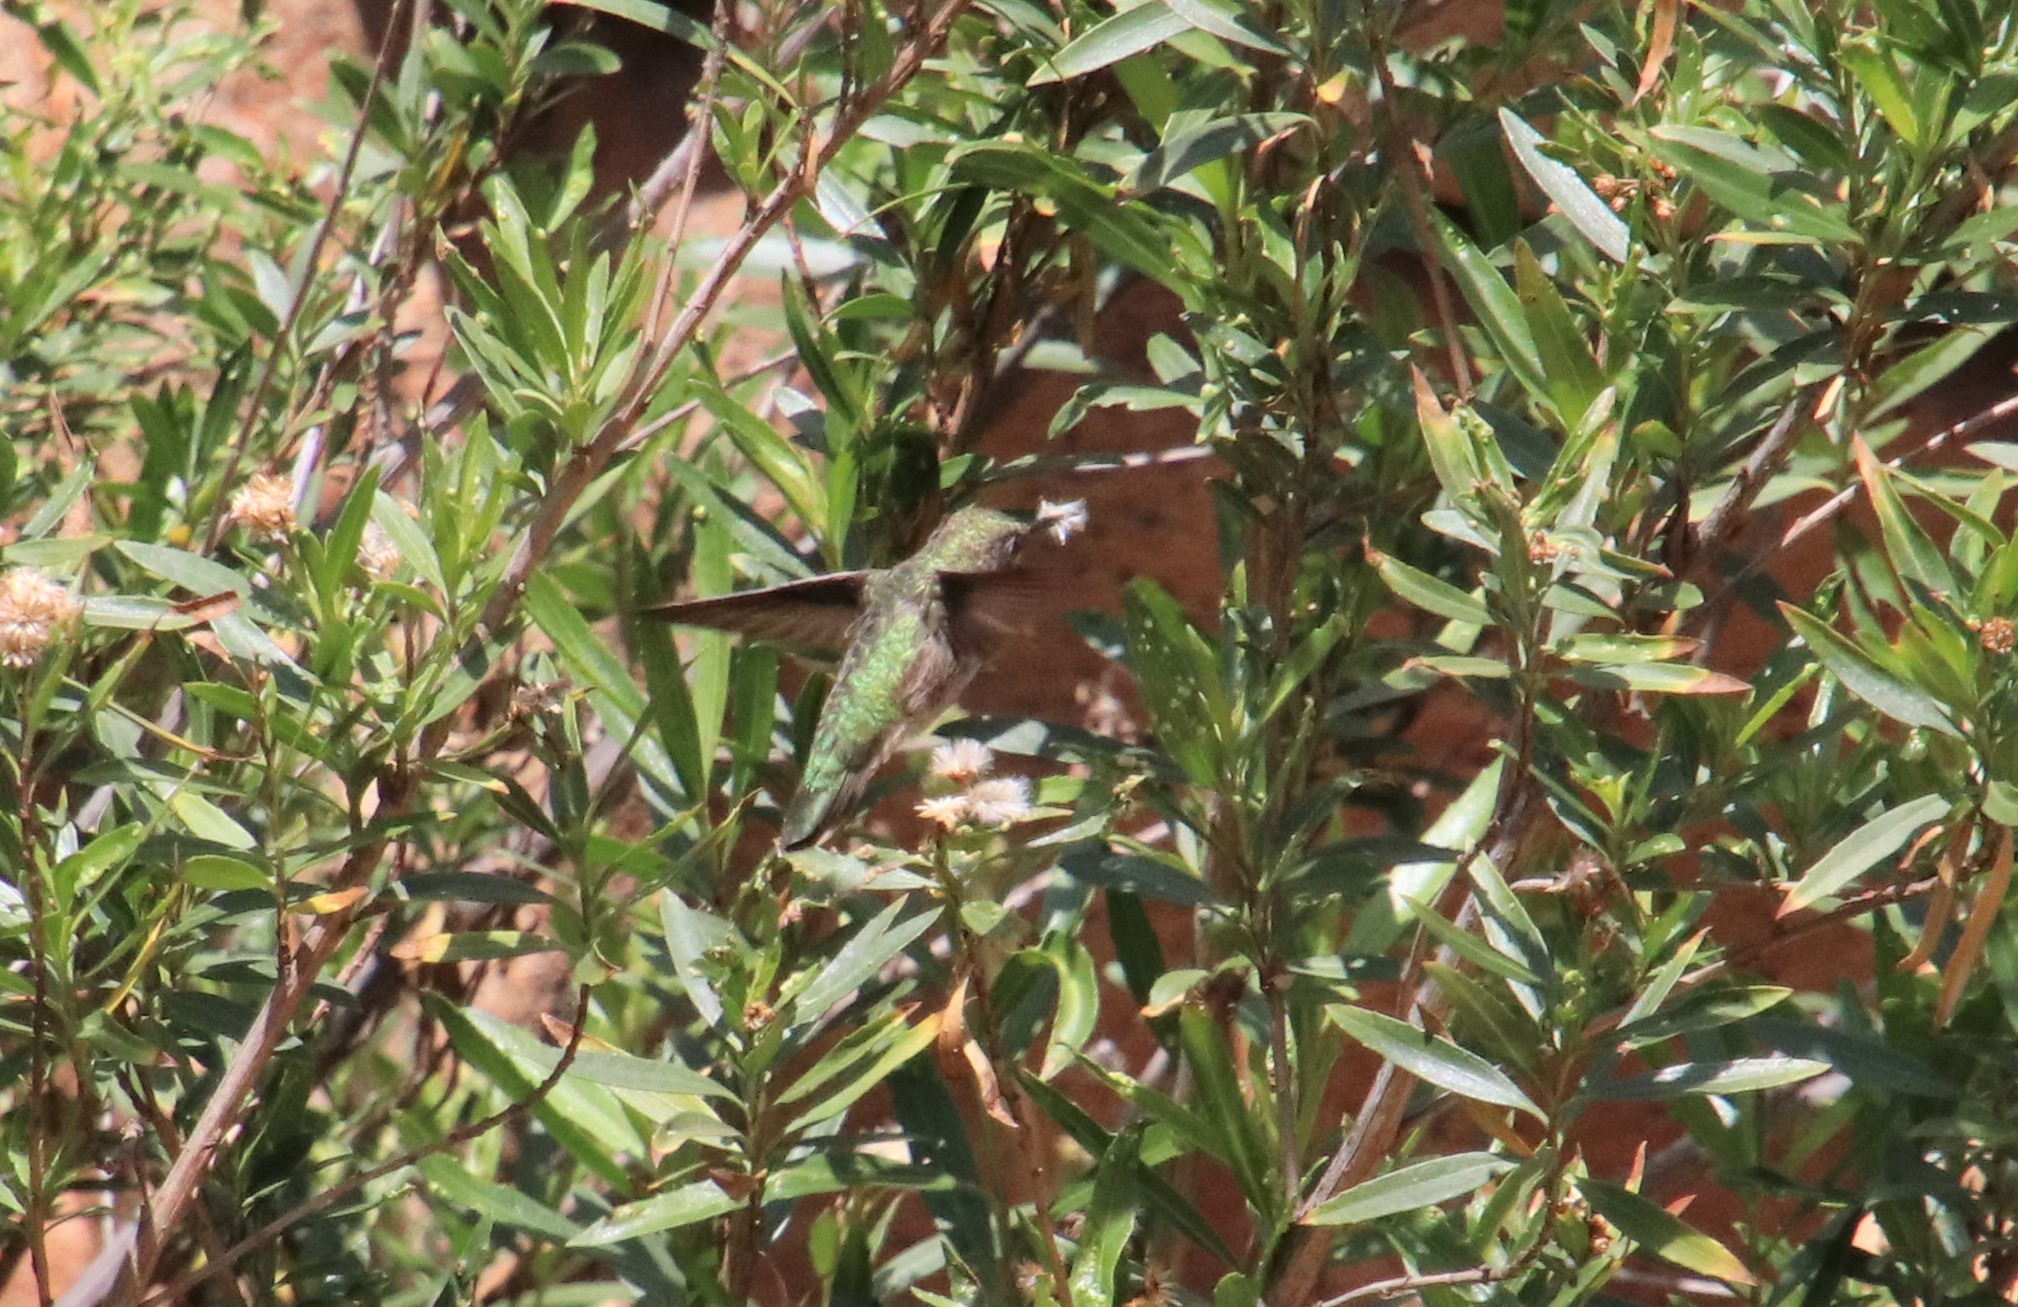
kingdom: Animalia
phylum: Chordata
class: Aves
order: Apodiformes
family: Trochilidae
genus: Archilochus
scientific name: Archilochus alexandri
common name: Black-chinned hummingbird
